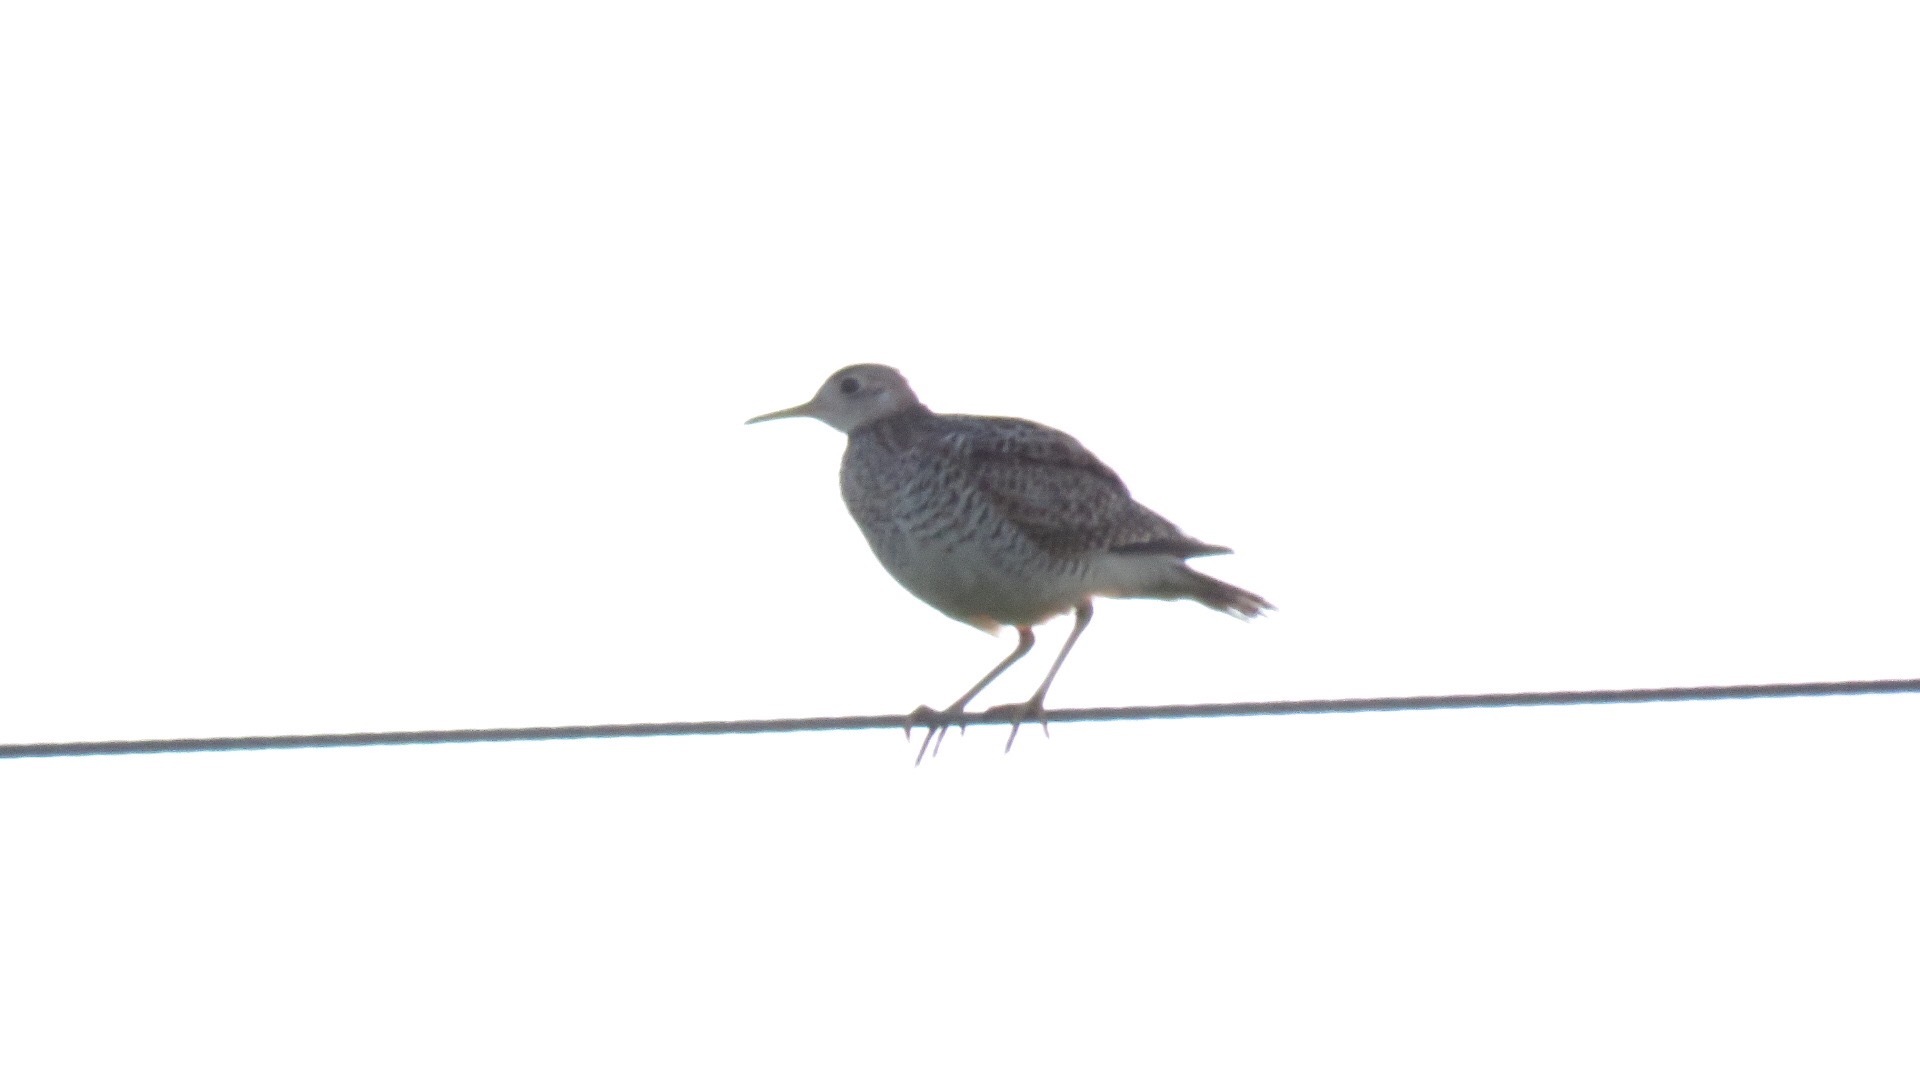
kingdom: Animalia
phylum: Chordata
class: Aves
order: Charadriiformes
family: Scolopacidae
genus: Bartramia
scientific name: Bartramia longicauda
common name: Upland sandpiper
